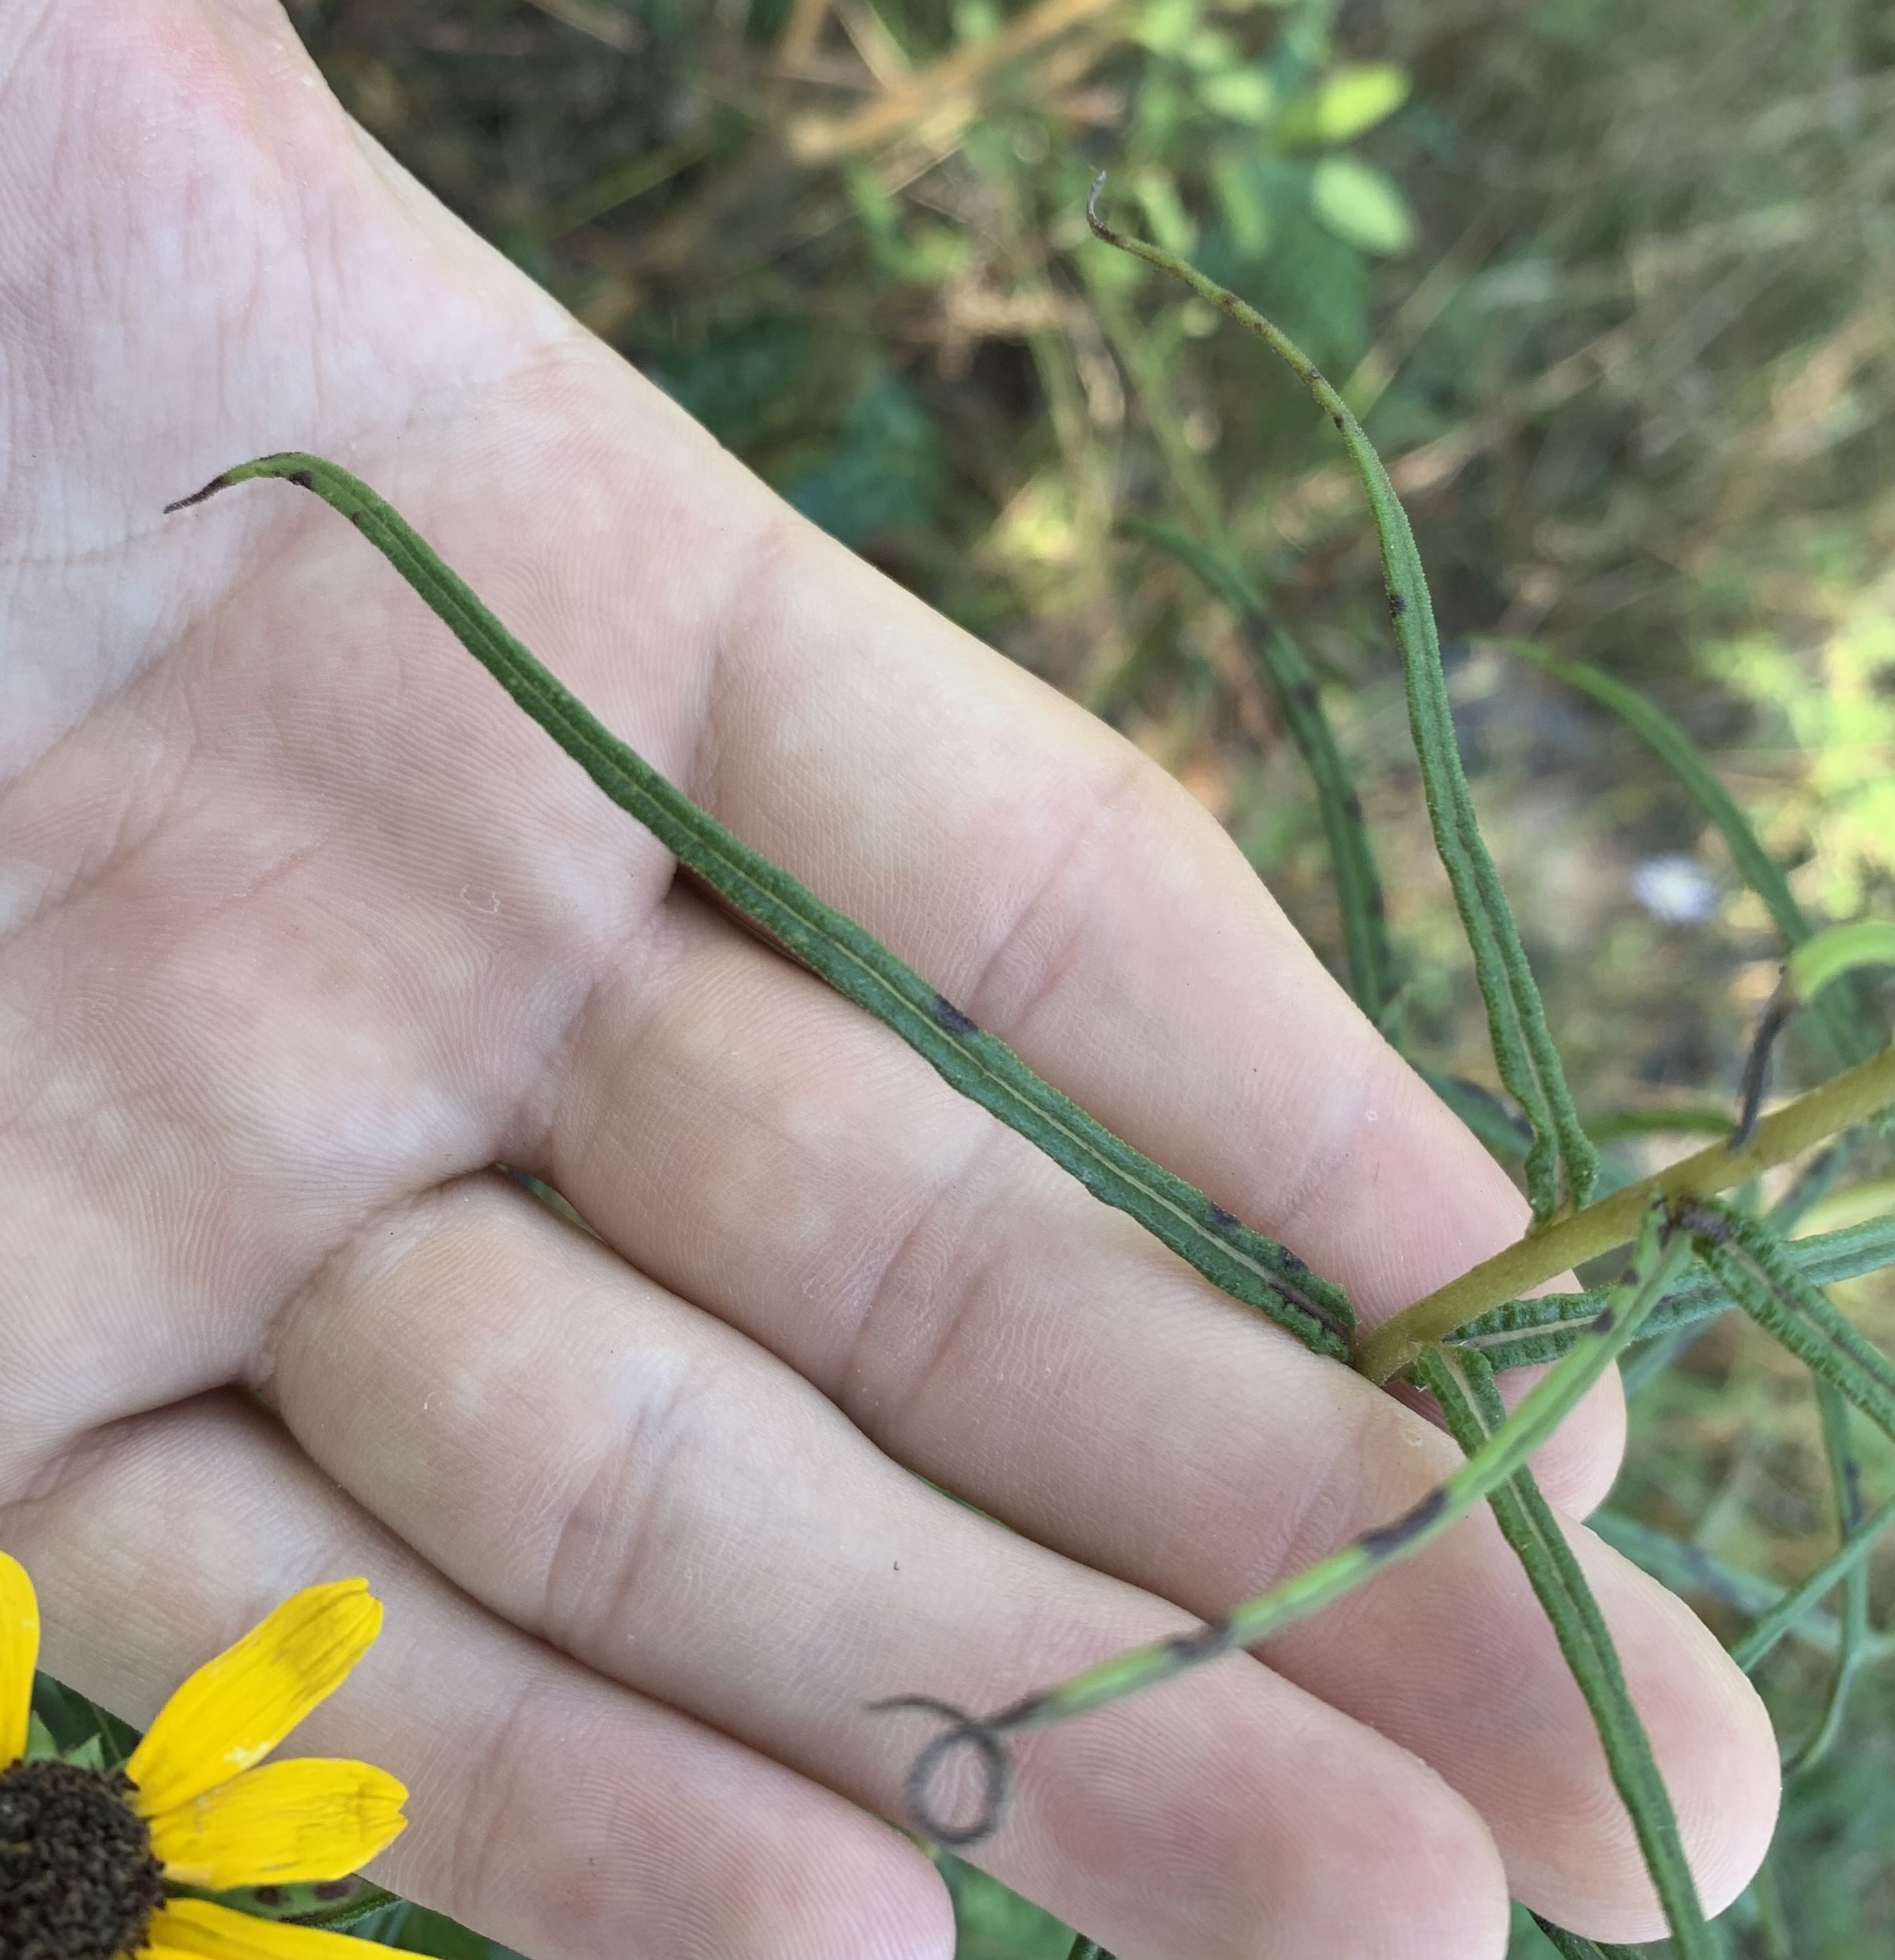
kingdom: Plantae
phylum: Tracheophyta
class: Magnoliopsida
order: Asterales
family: Asteraceae
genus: Helianthus
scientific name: Helianthus angustifolius
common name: Swamp sunflower
